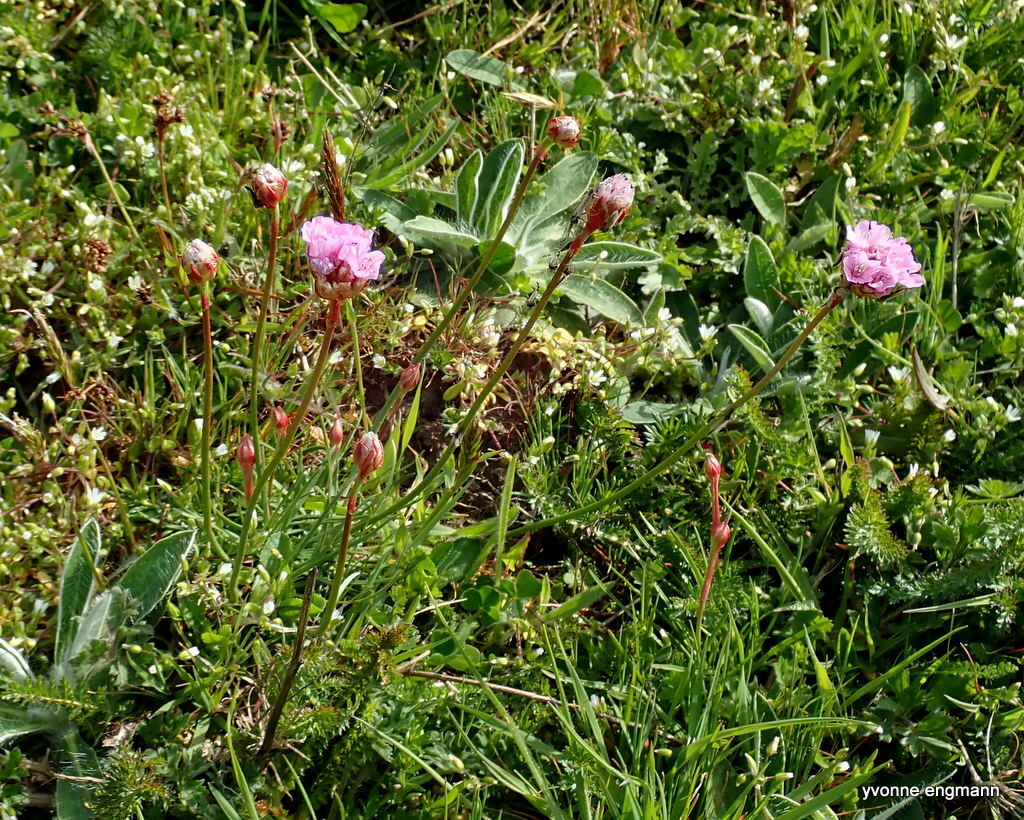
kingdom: Plantae
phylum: Tracheophyta
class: Magnoliopsida
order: Caryophyllales
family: Plumbaginaceae
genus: Armeria
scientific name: Armeria maritima
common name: Thrift
